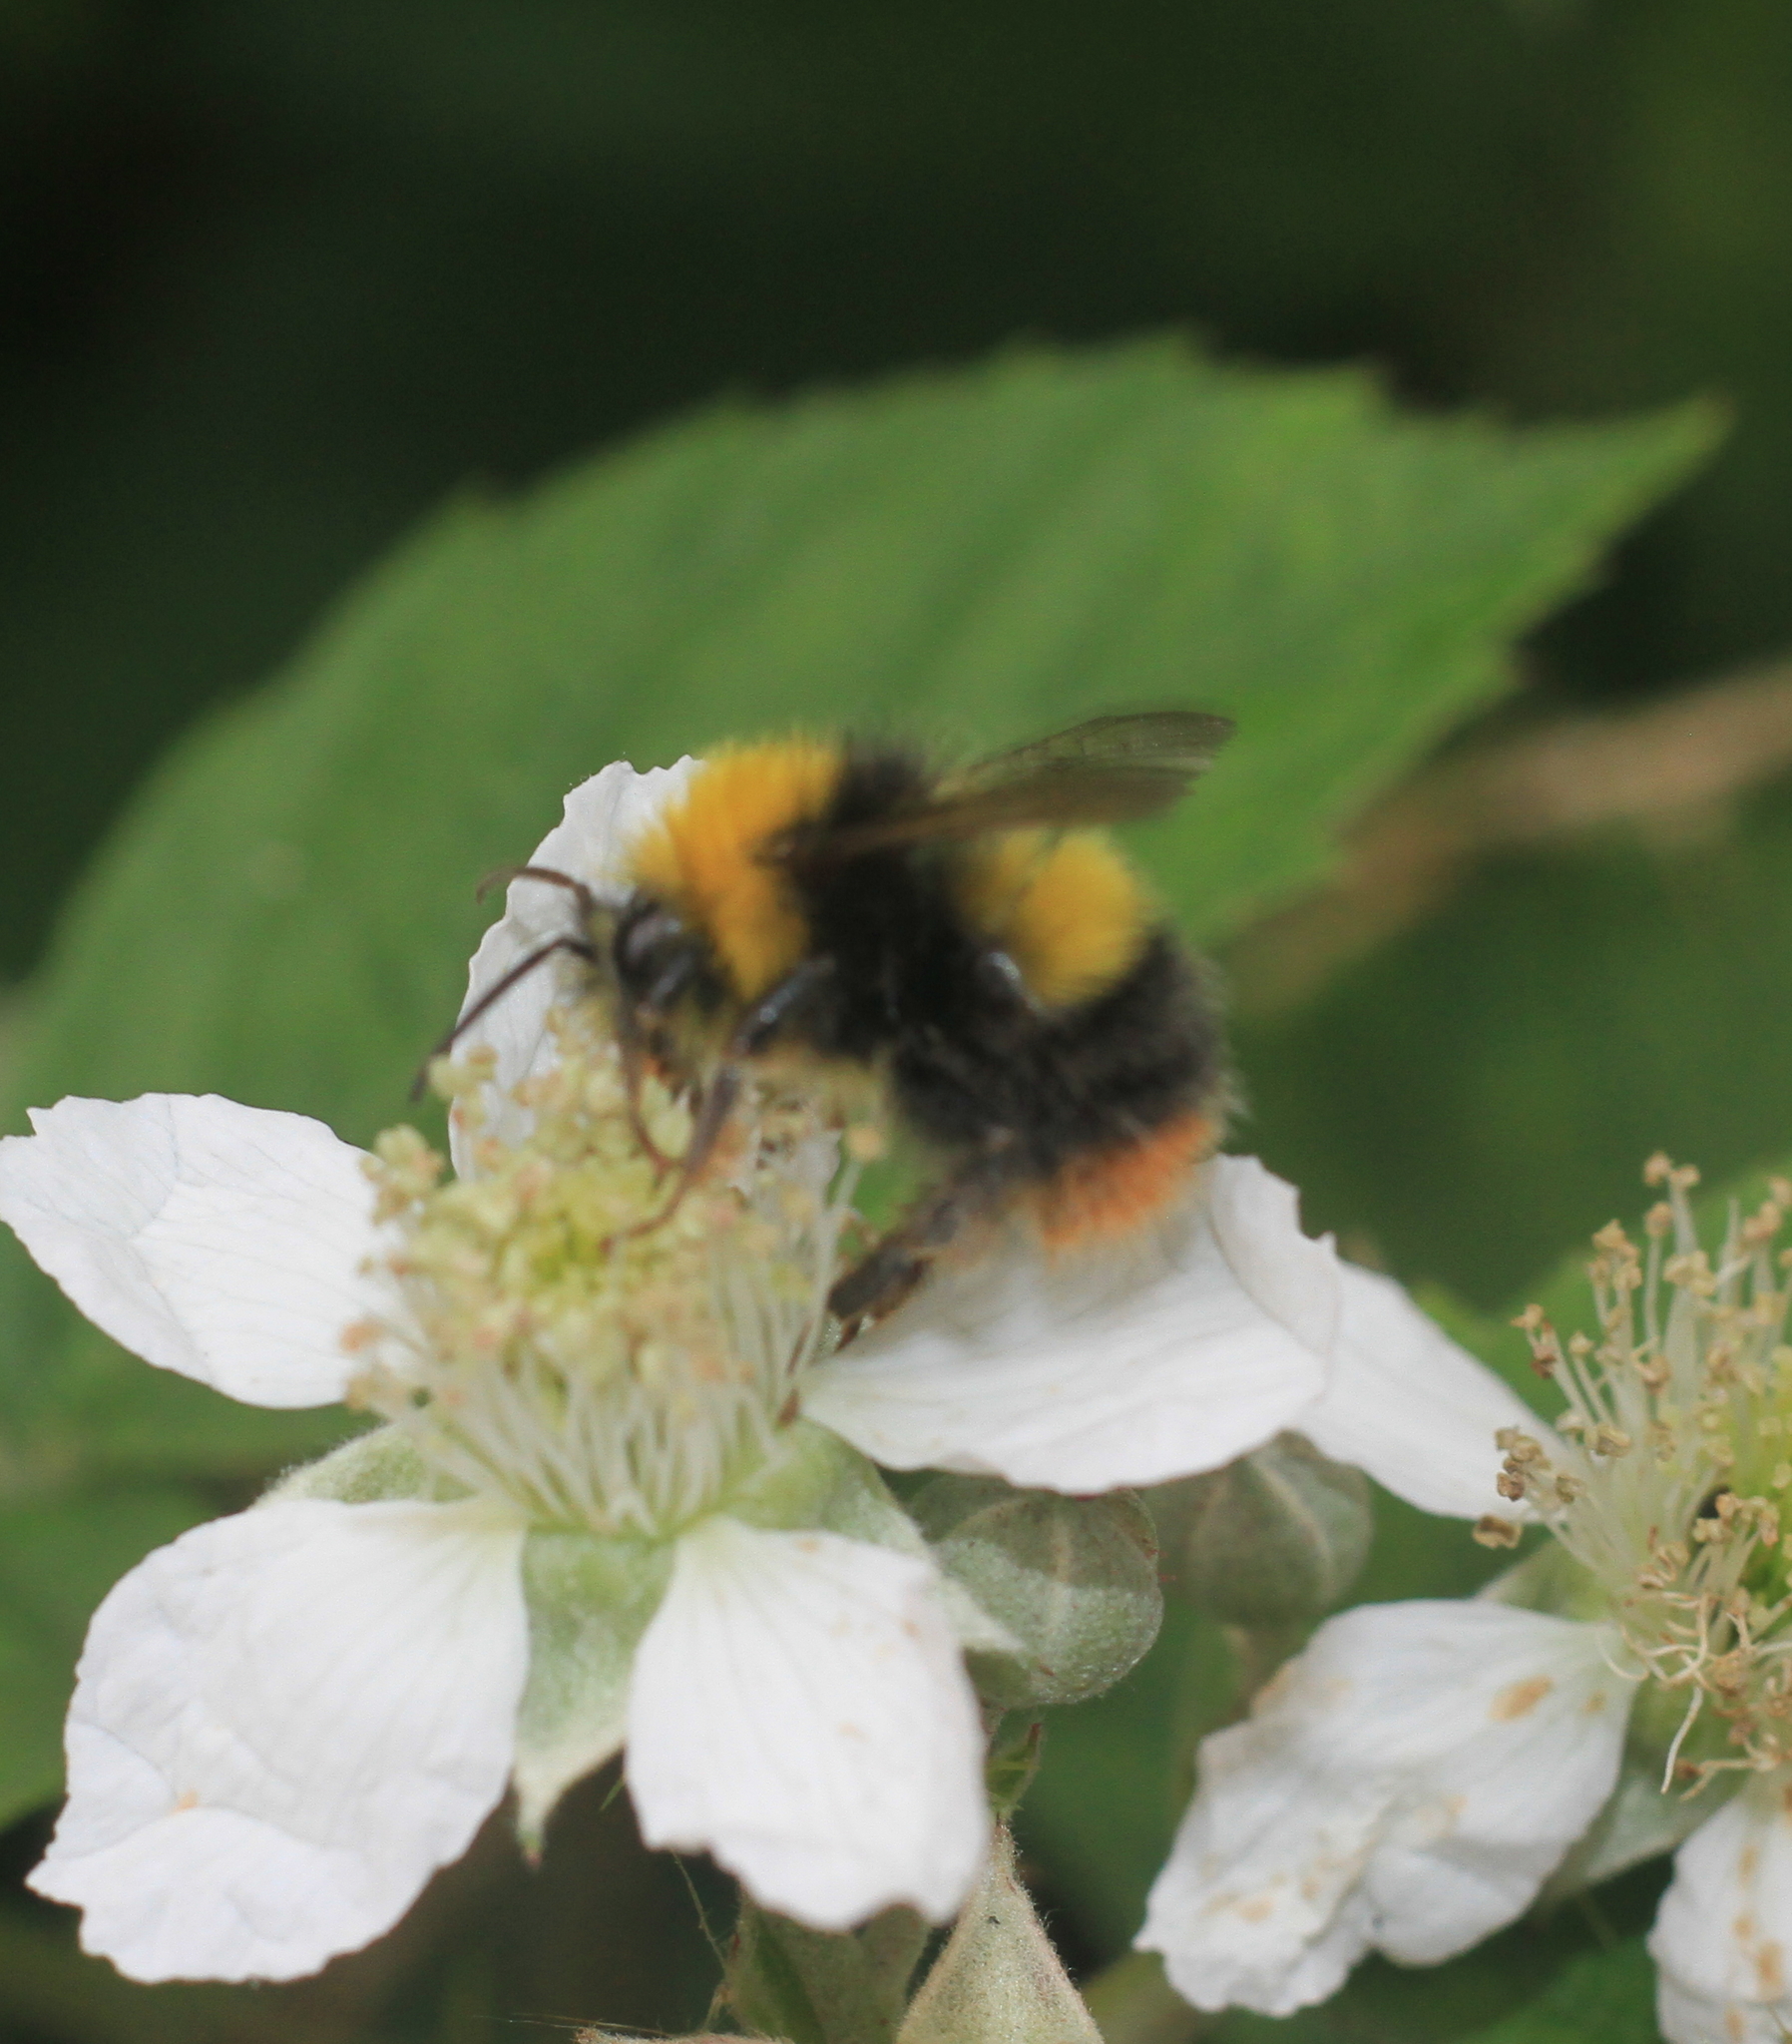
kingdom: Animalia
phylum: Arthropoda
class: Insecta
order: Hymenoptera
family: Apidae
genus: Bombus
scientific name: Bombus pratorum
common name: Early humble-bee
